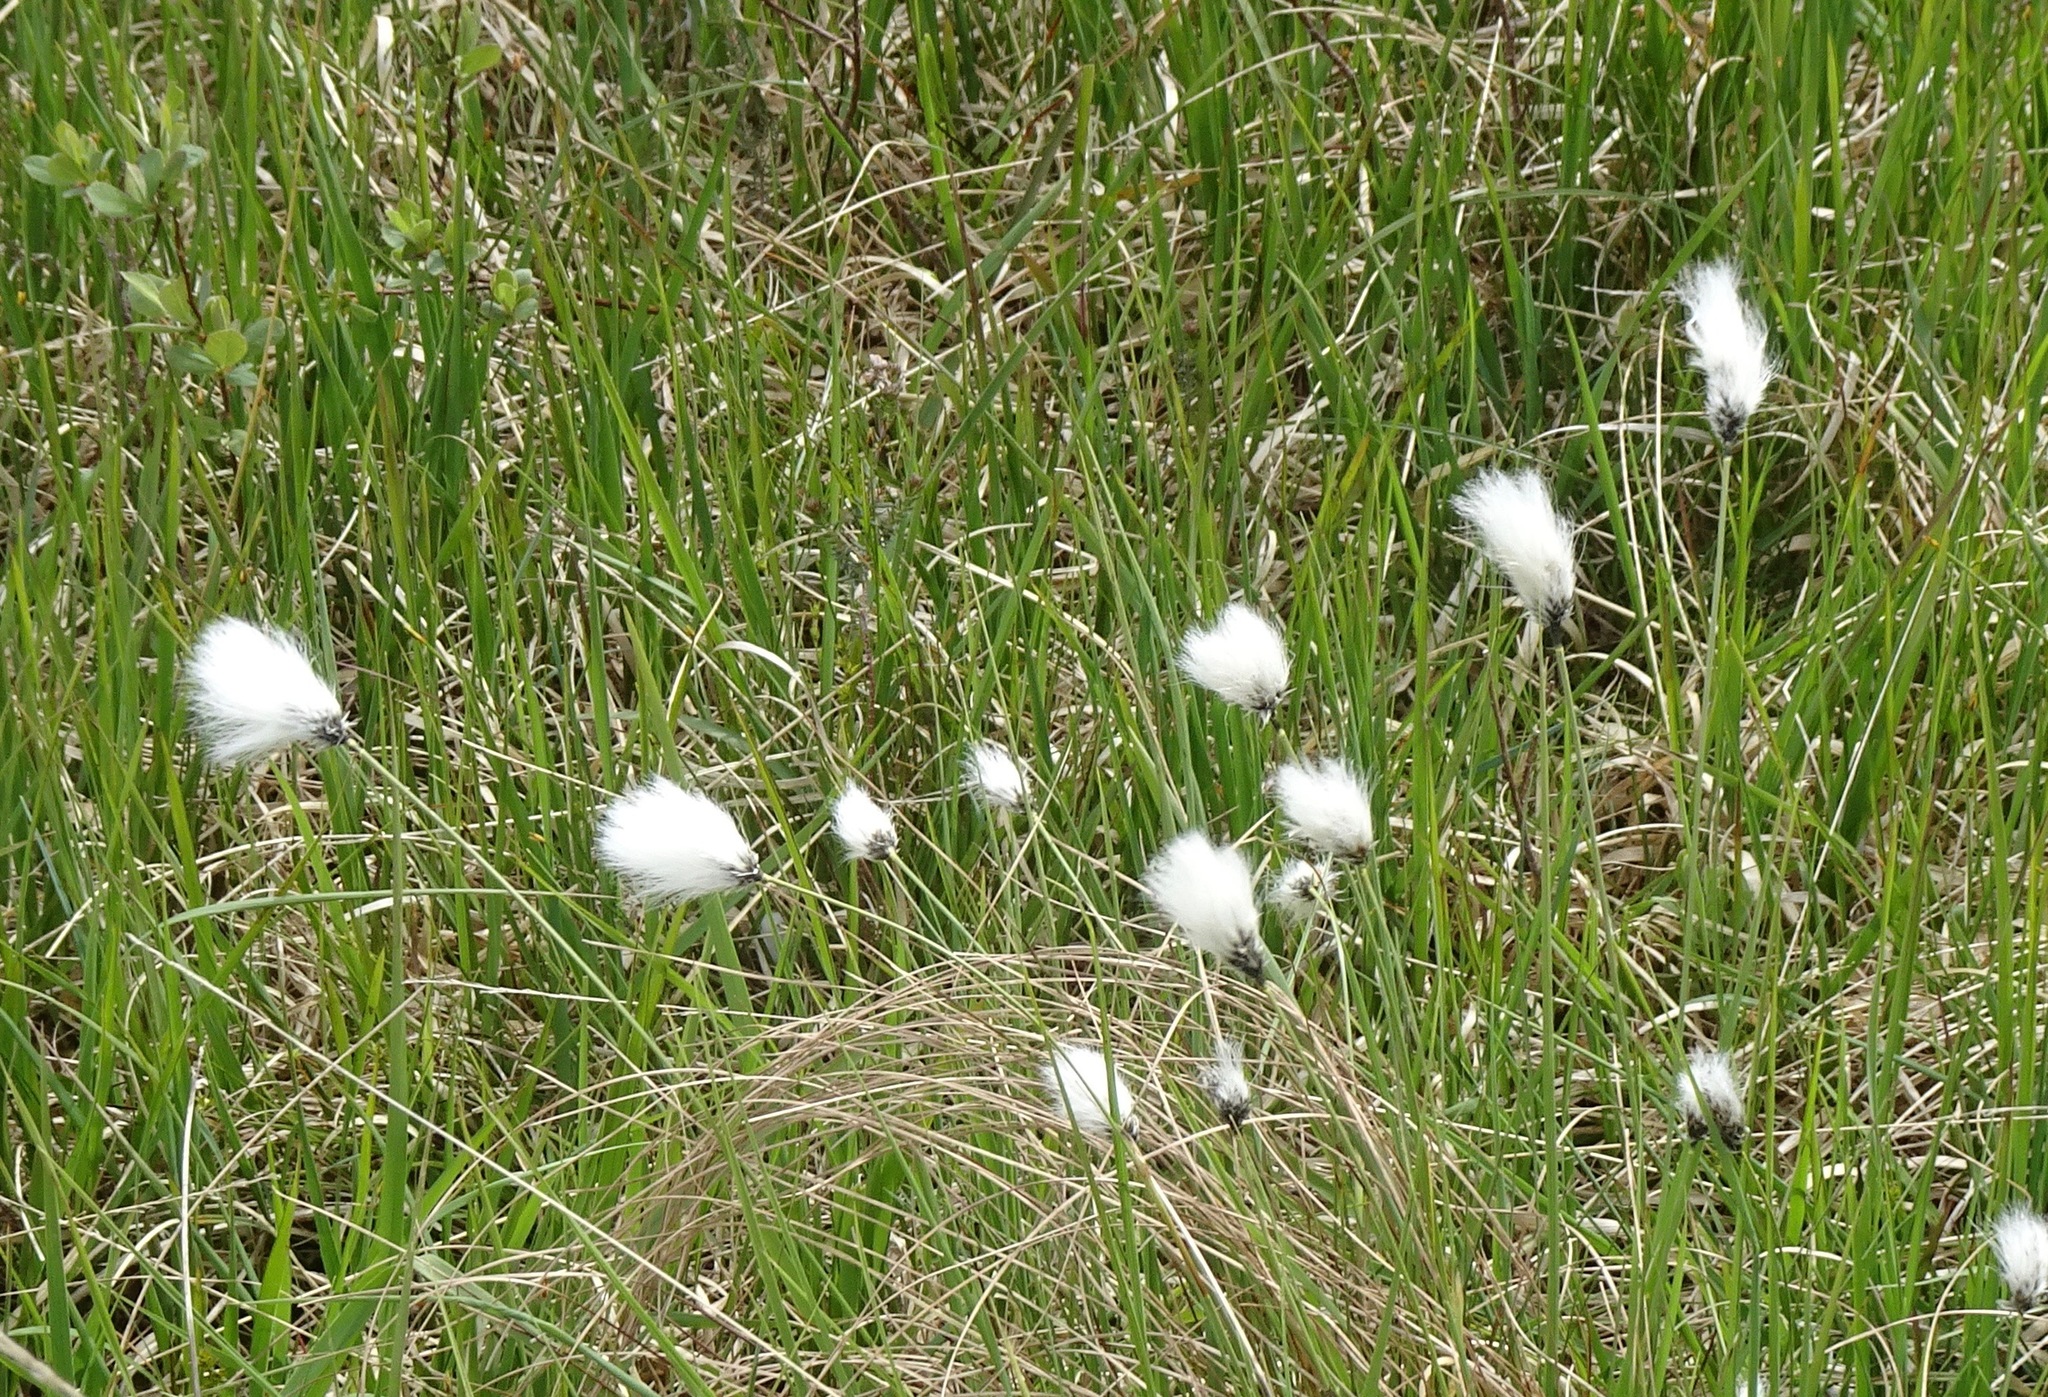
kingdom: Plantae
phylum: Tracheophyta
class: Liliopsida
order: Poales
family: Cyperaceae
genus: Eriophorum
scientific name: Eriophorum vaginatum
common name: Hare's-tail cottongrass
